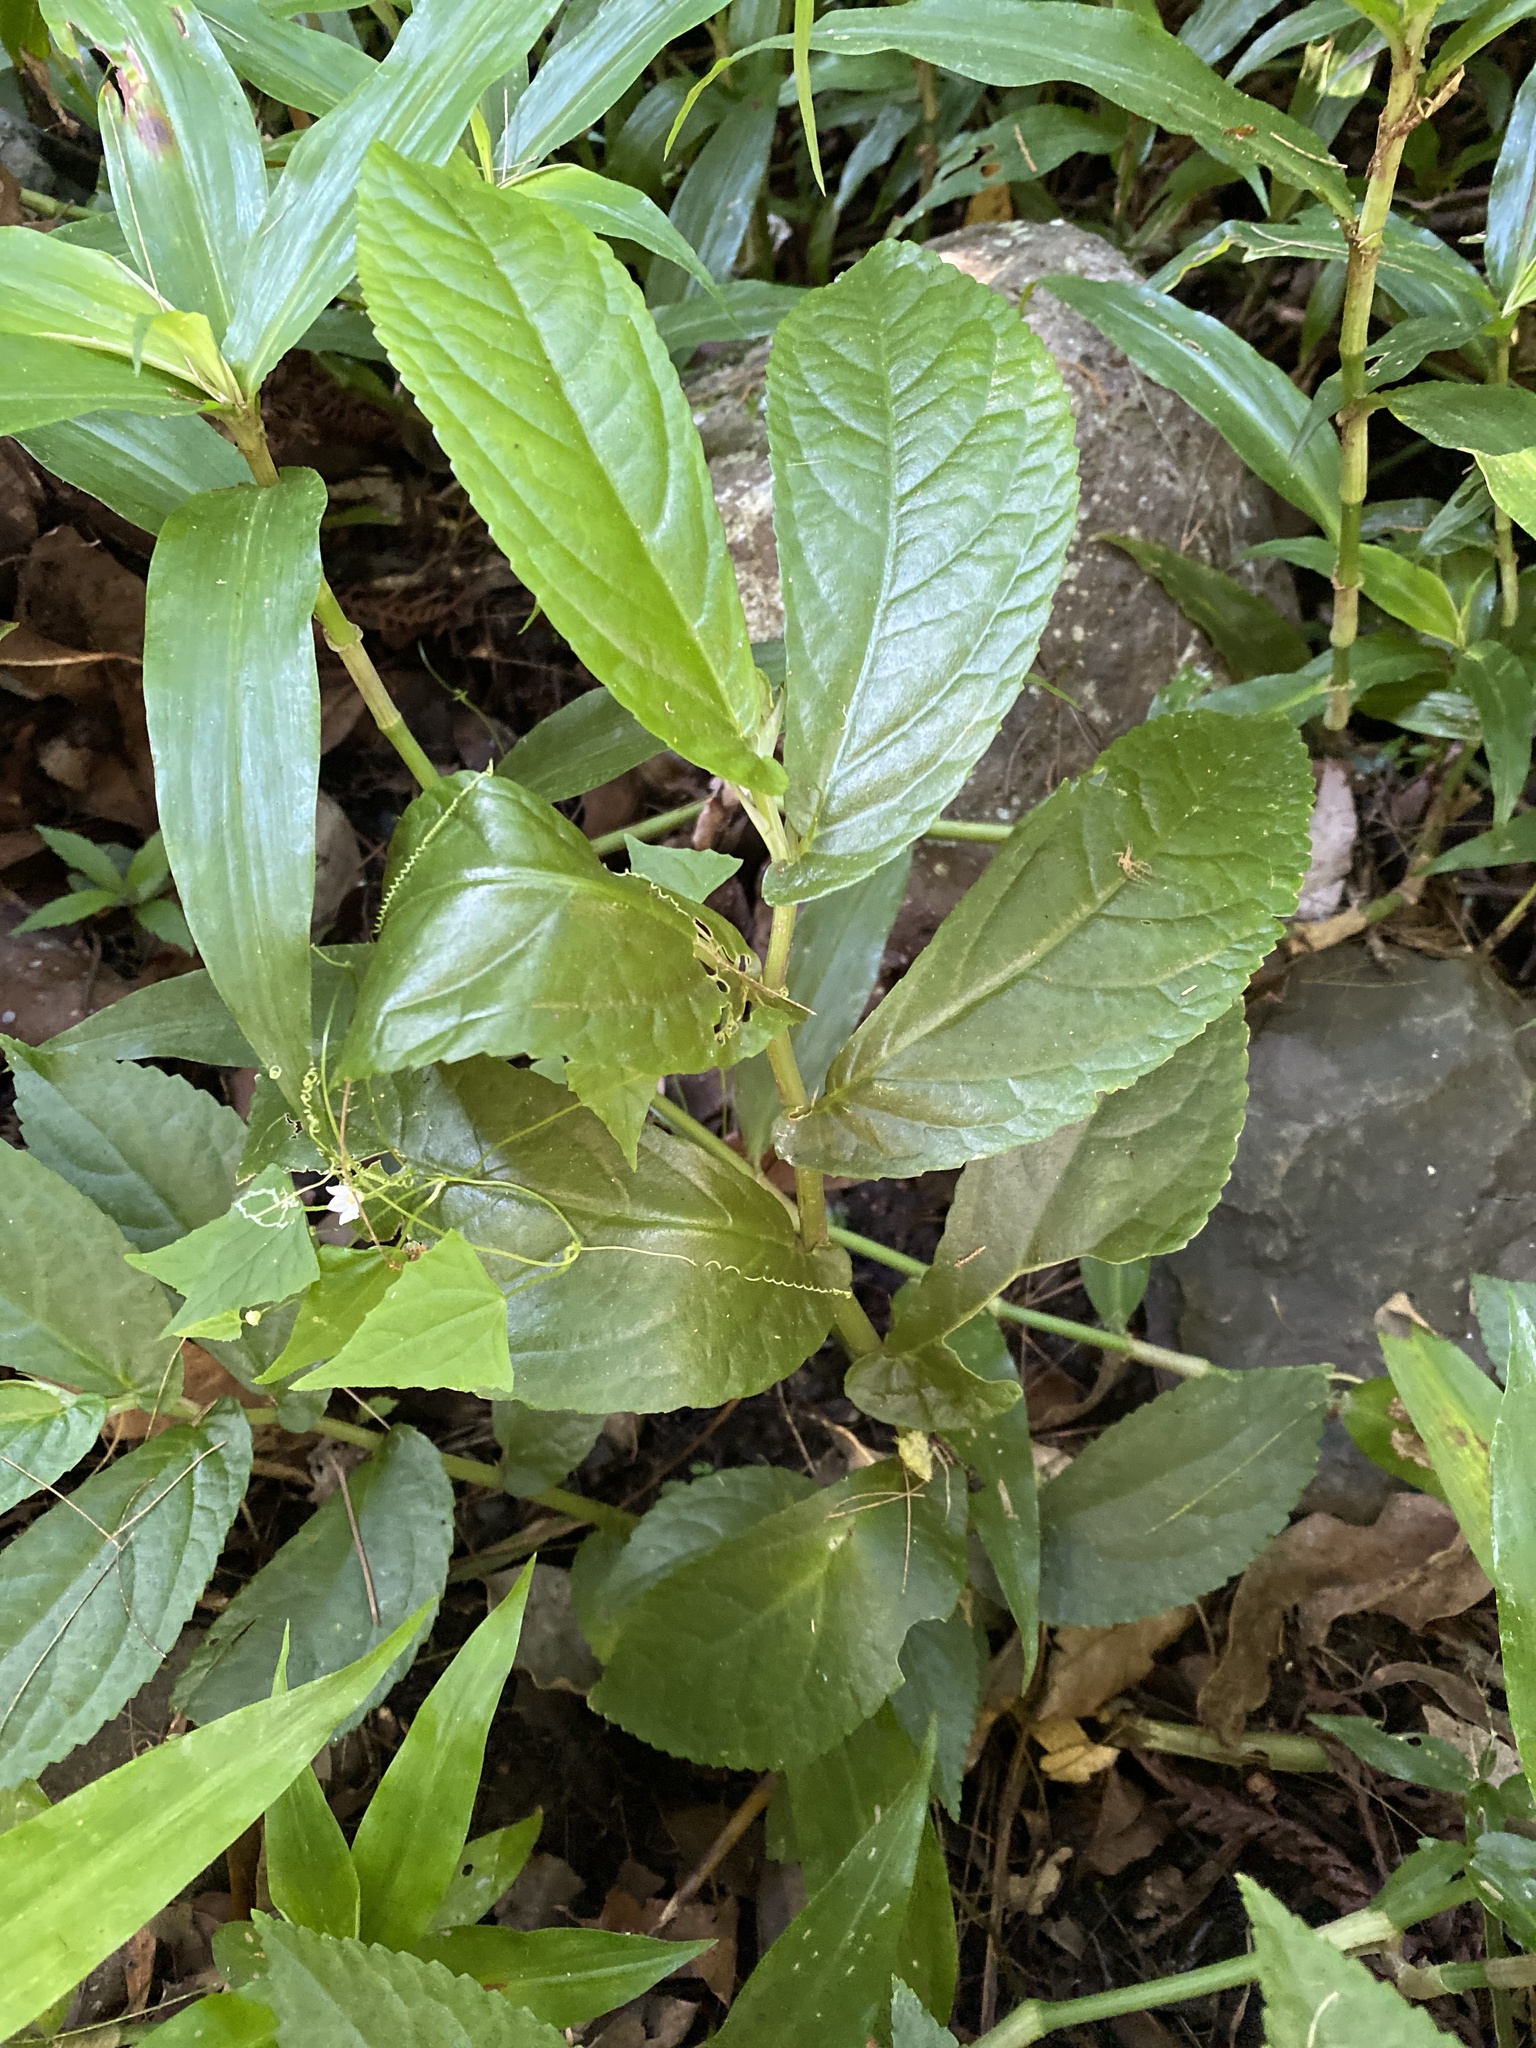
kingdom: Plantae
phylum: Tracheophyta
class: Magnoliopsida
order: Rosales
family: Urticaceae
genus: Elatostema
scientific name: Elatostema reticulatum
